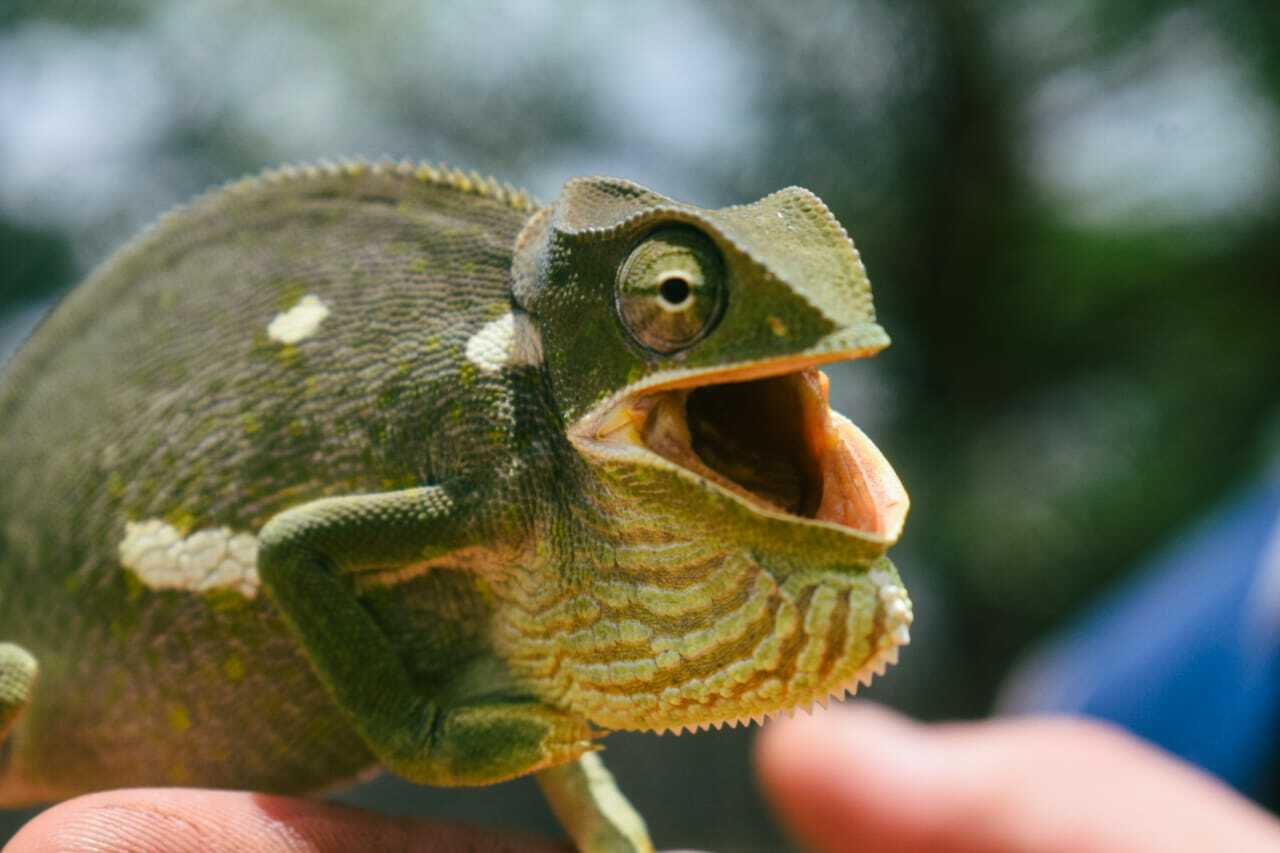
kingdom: Animalia
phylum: Chordata
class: Squamata
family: Chamaeleonidae
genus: Chamaeleo
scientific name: Chamaeleo dilepis
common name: Flapneck chameleon
